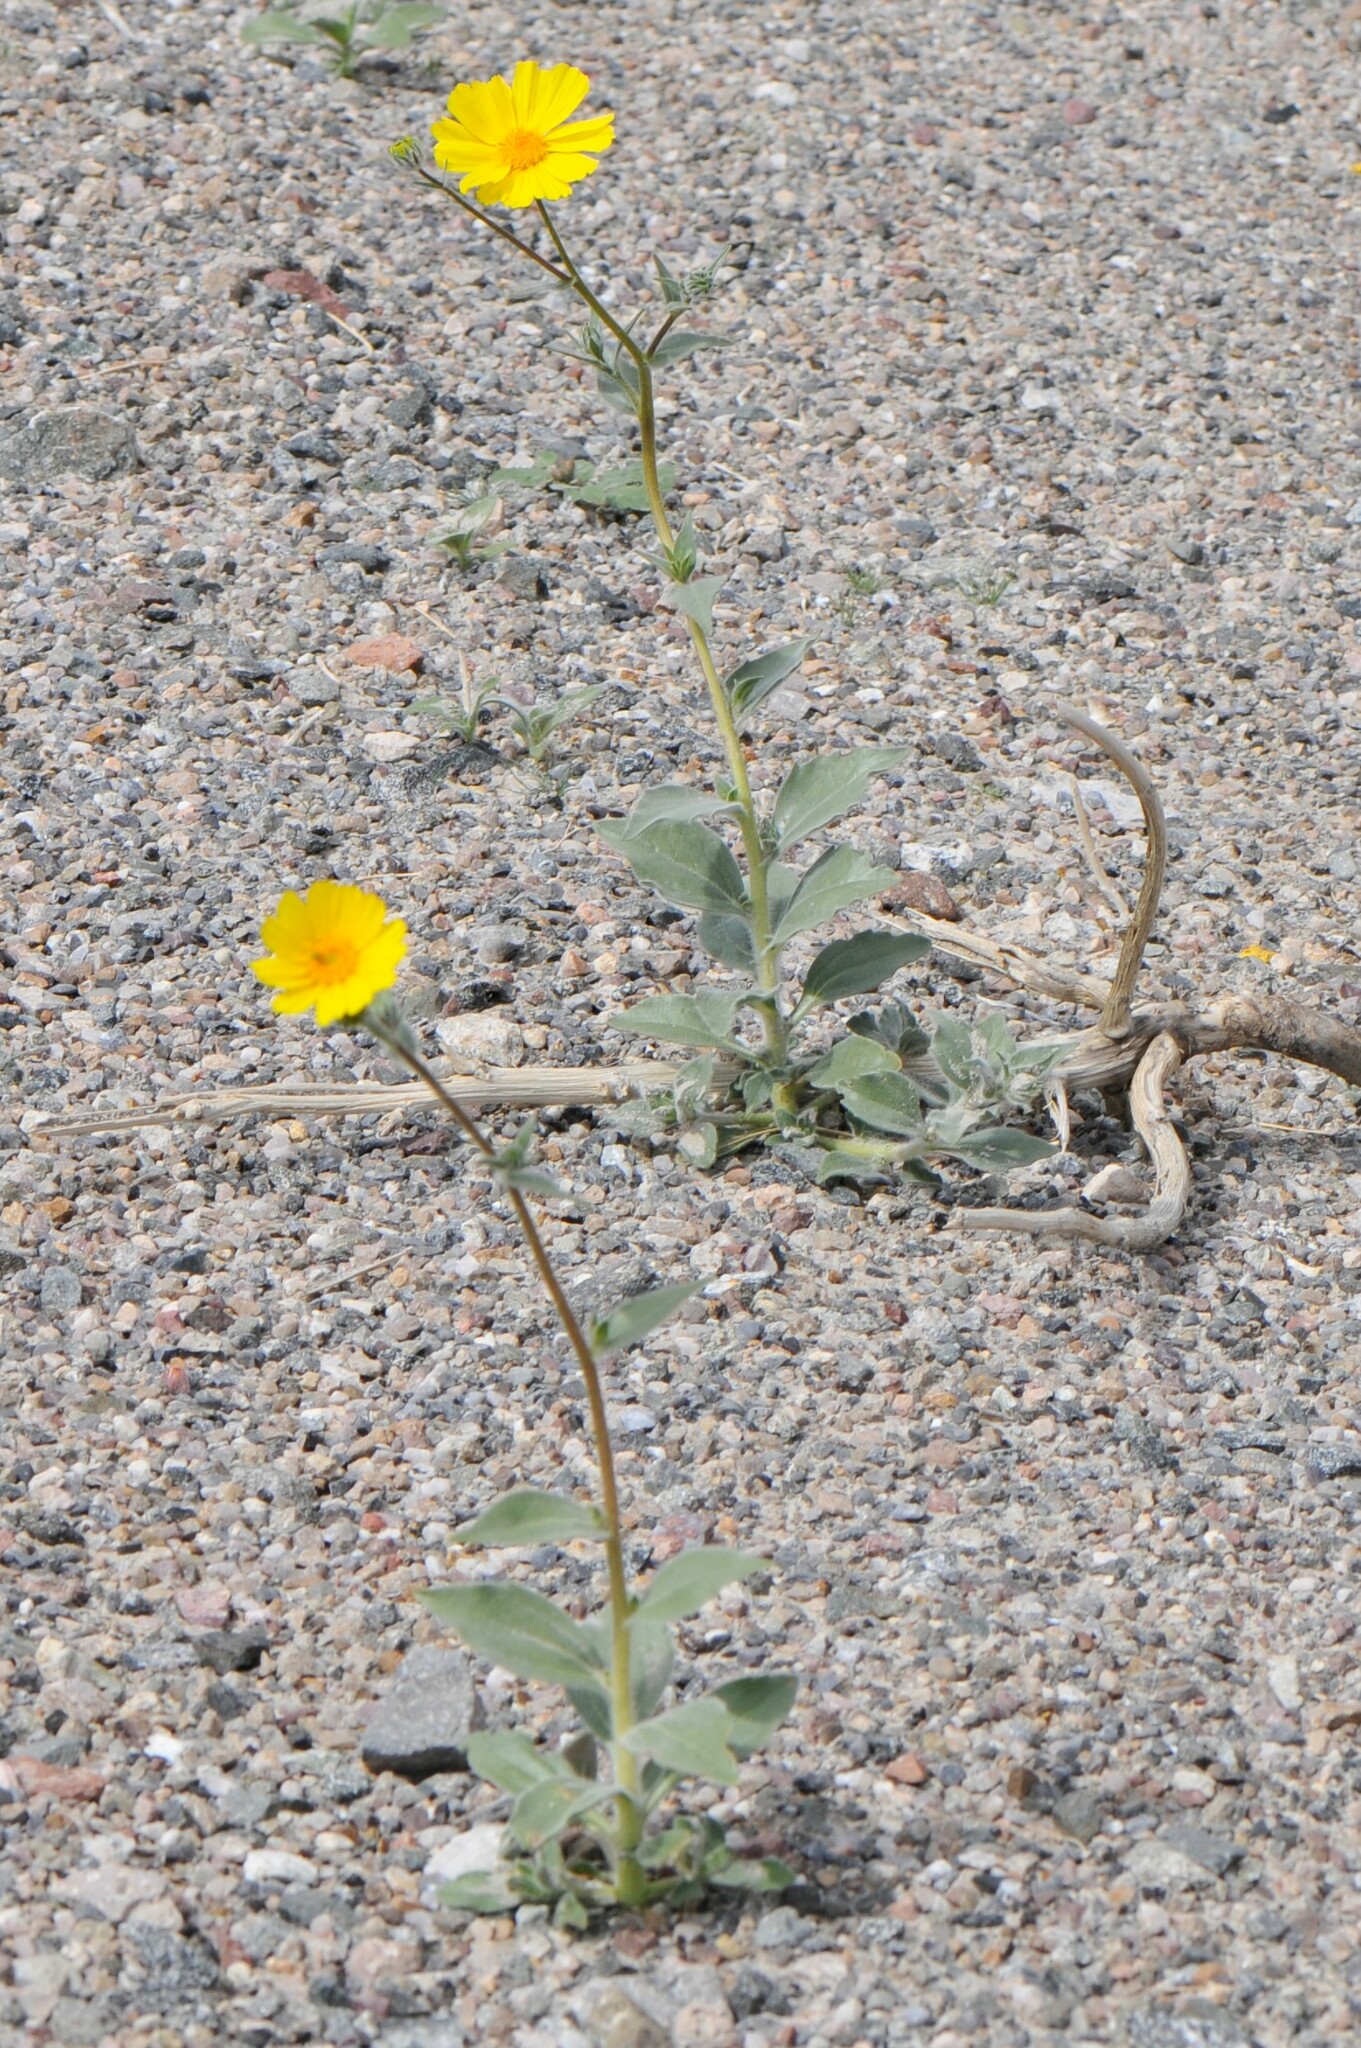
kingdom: Plantae
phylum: Tracheophyta
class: Magnoliopsida
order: Asterales
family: Asteraceae
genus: Geraea
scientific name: Geraea canescens
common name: Desert-gold
